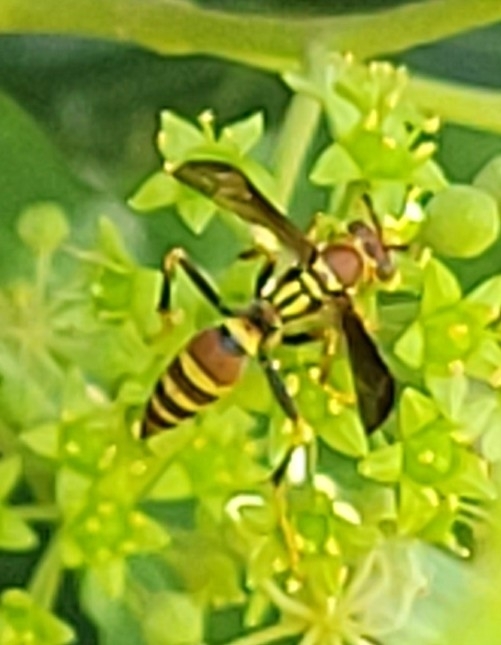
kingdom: Animalia
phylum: Arthropoda
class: Insecta
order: Hymenoptera
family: Eumenidae
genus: Polistes
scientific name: Polistes exclamans
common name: Paper wasp
